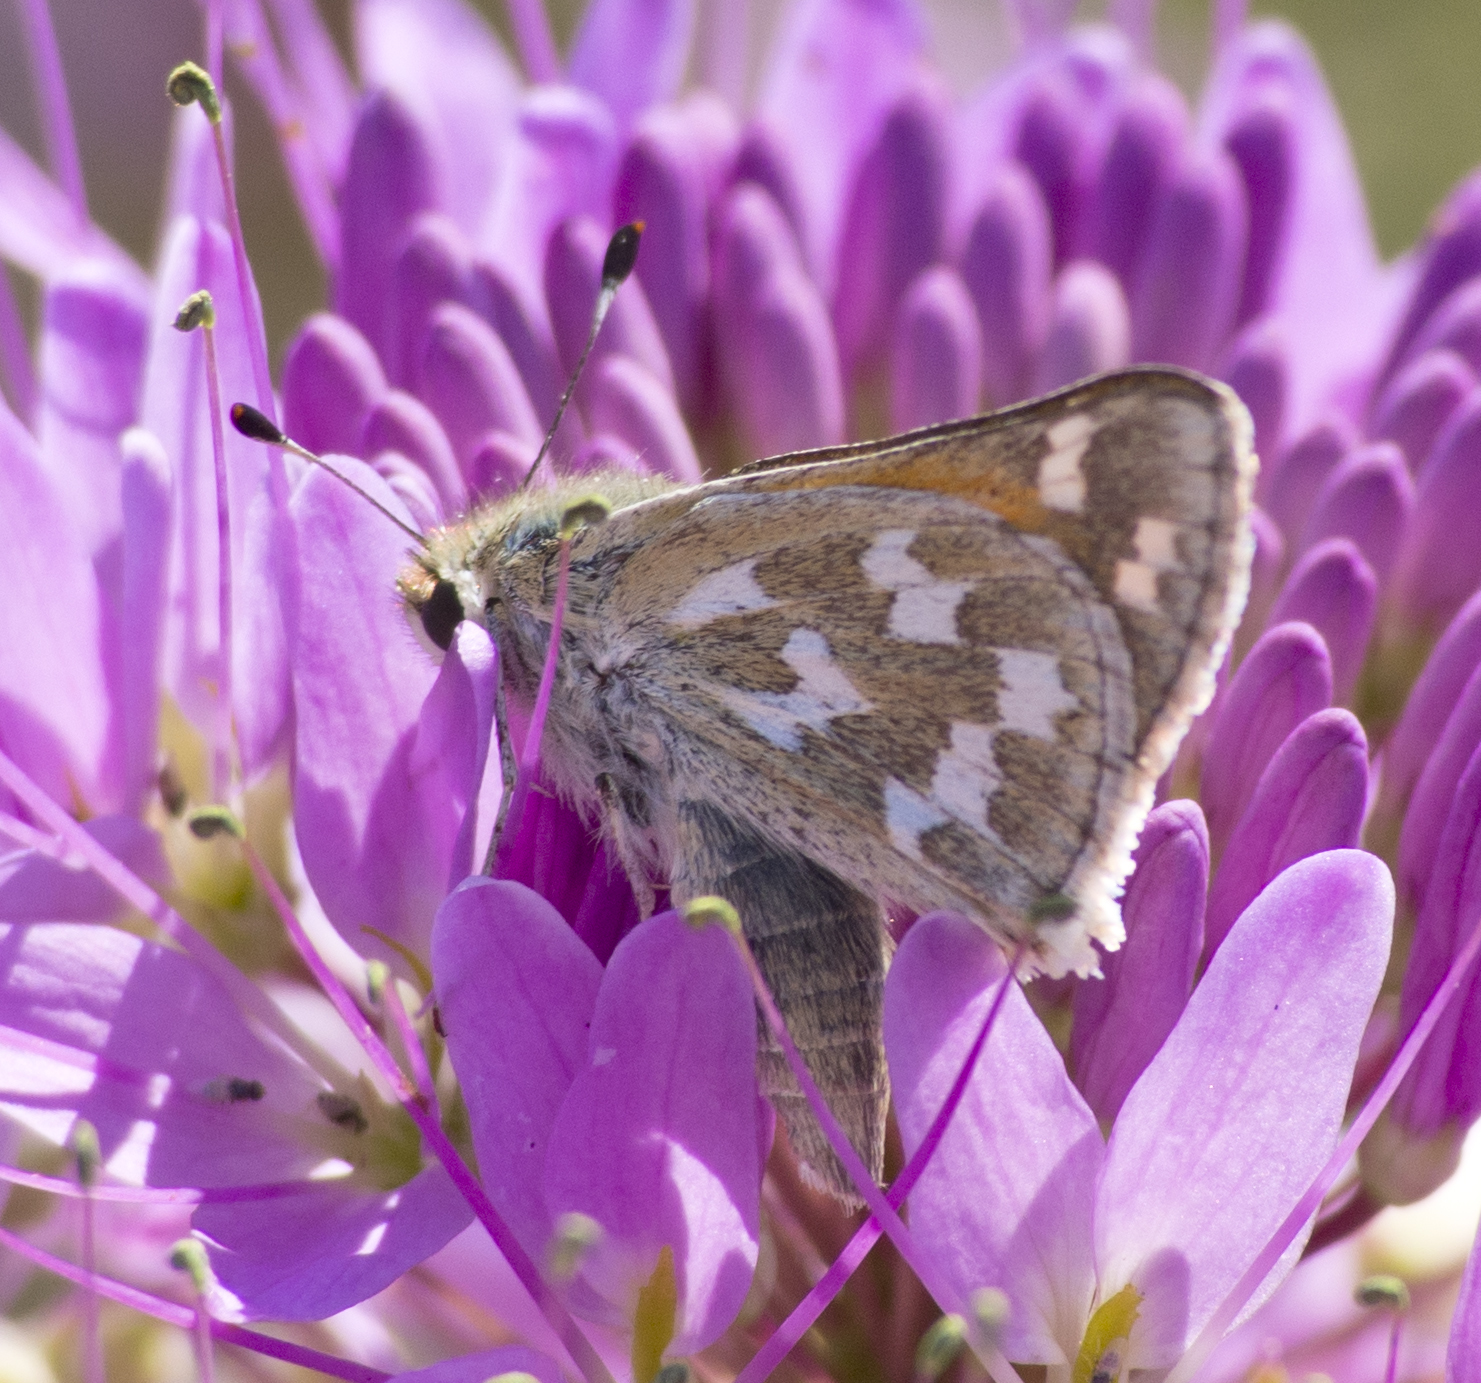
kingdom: Animalia
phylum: Arthropoda
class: Insecta
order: Lepidoptera
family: Hesperiidae
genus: Hesperia
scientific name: Hesperia juba
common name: Juba skipper
